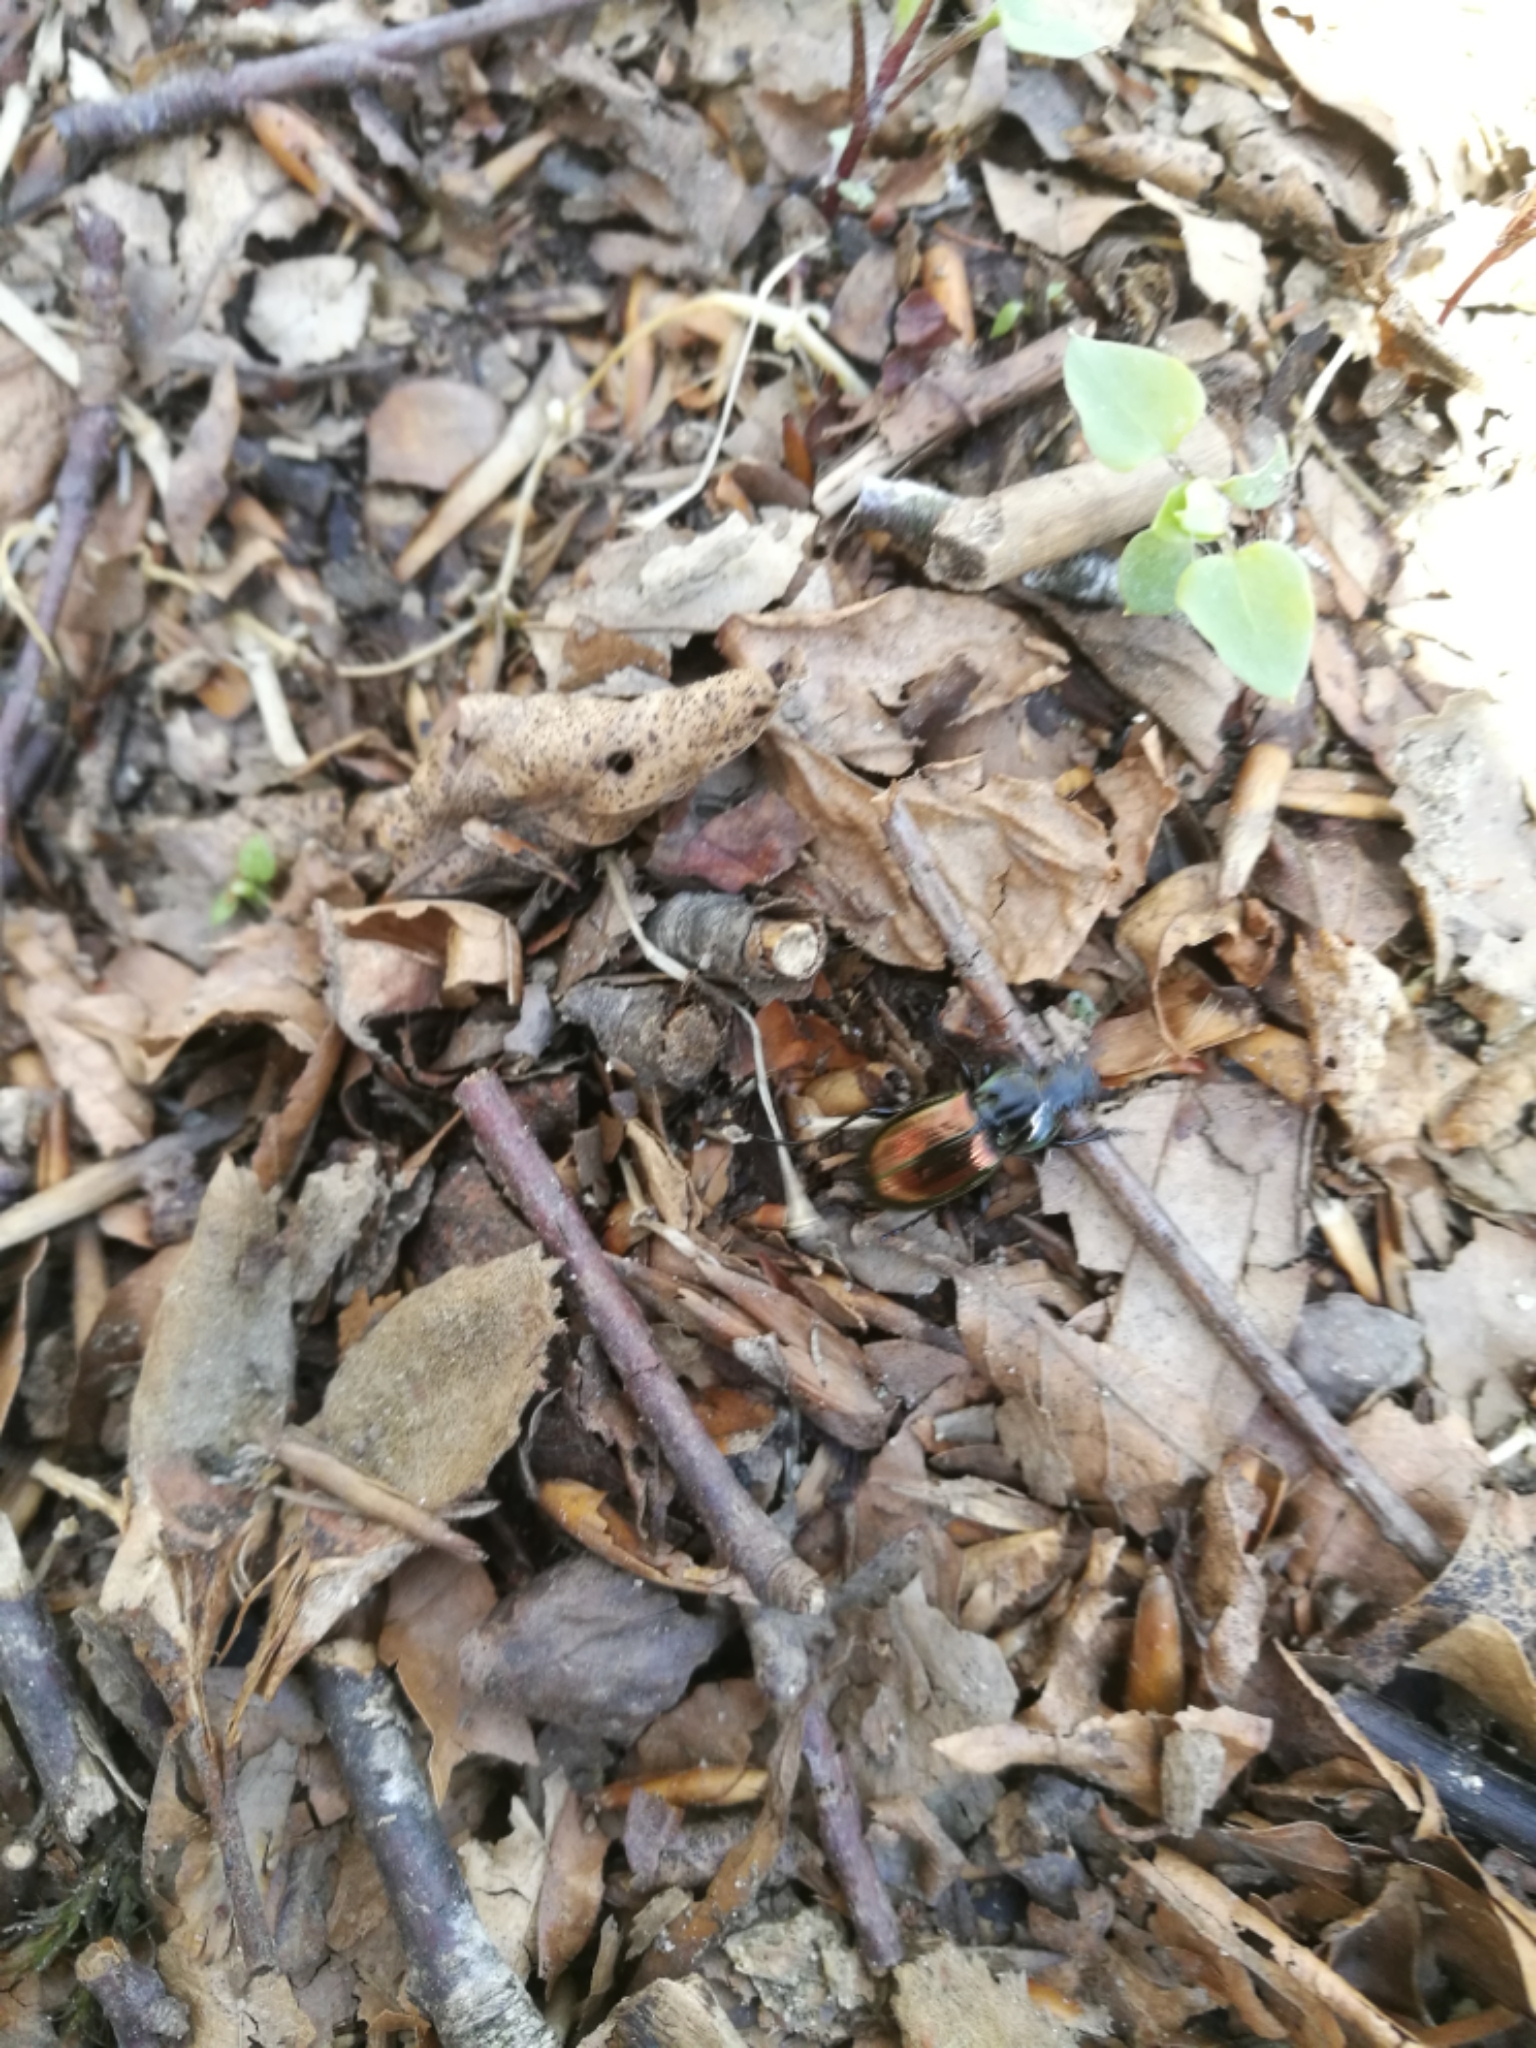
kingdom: Animalia
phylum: Arthropoda
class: Insecta
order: Coleoptera
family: Carabidae
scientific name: Carabidae
